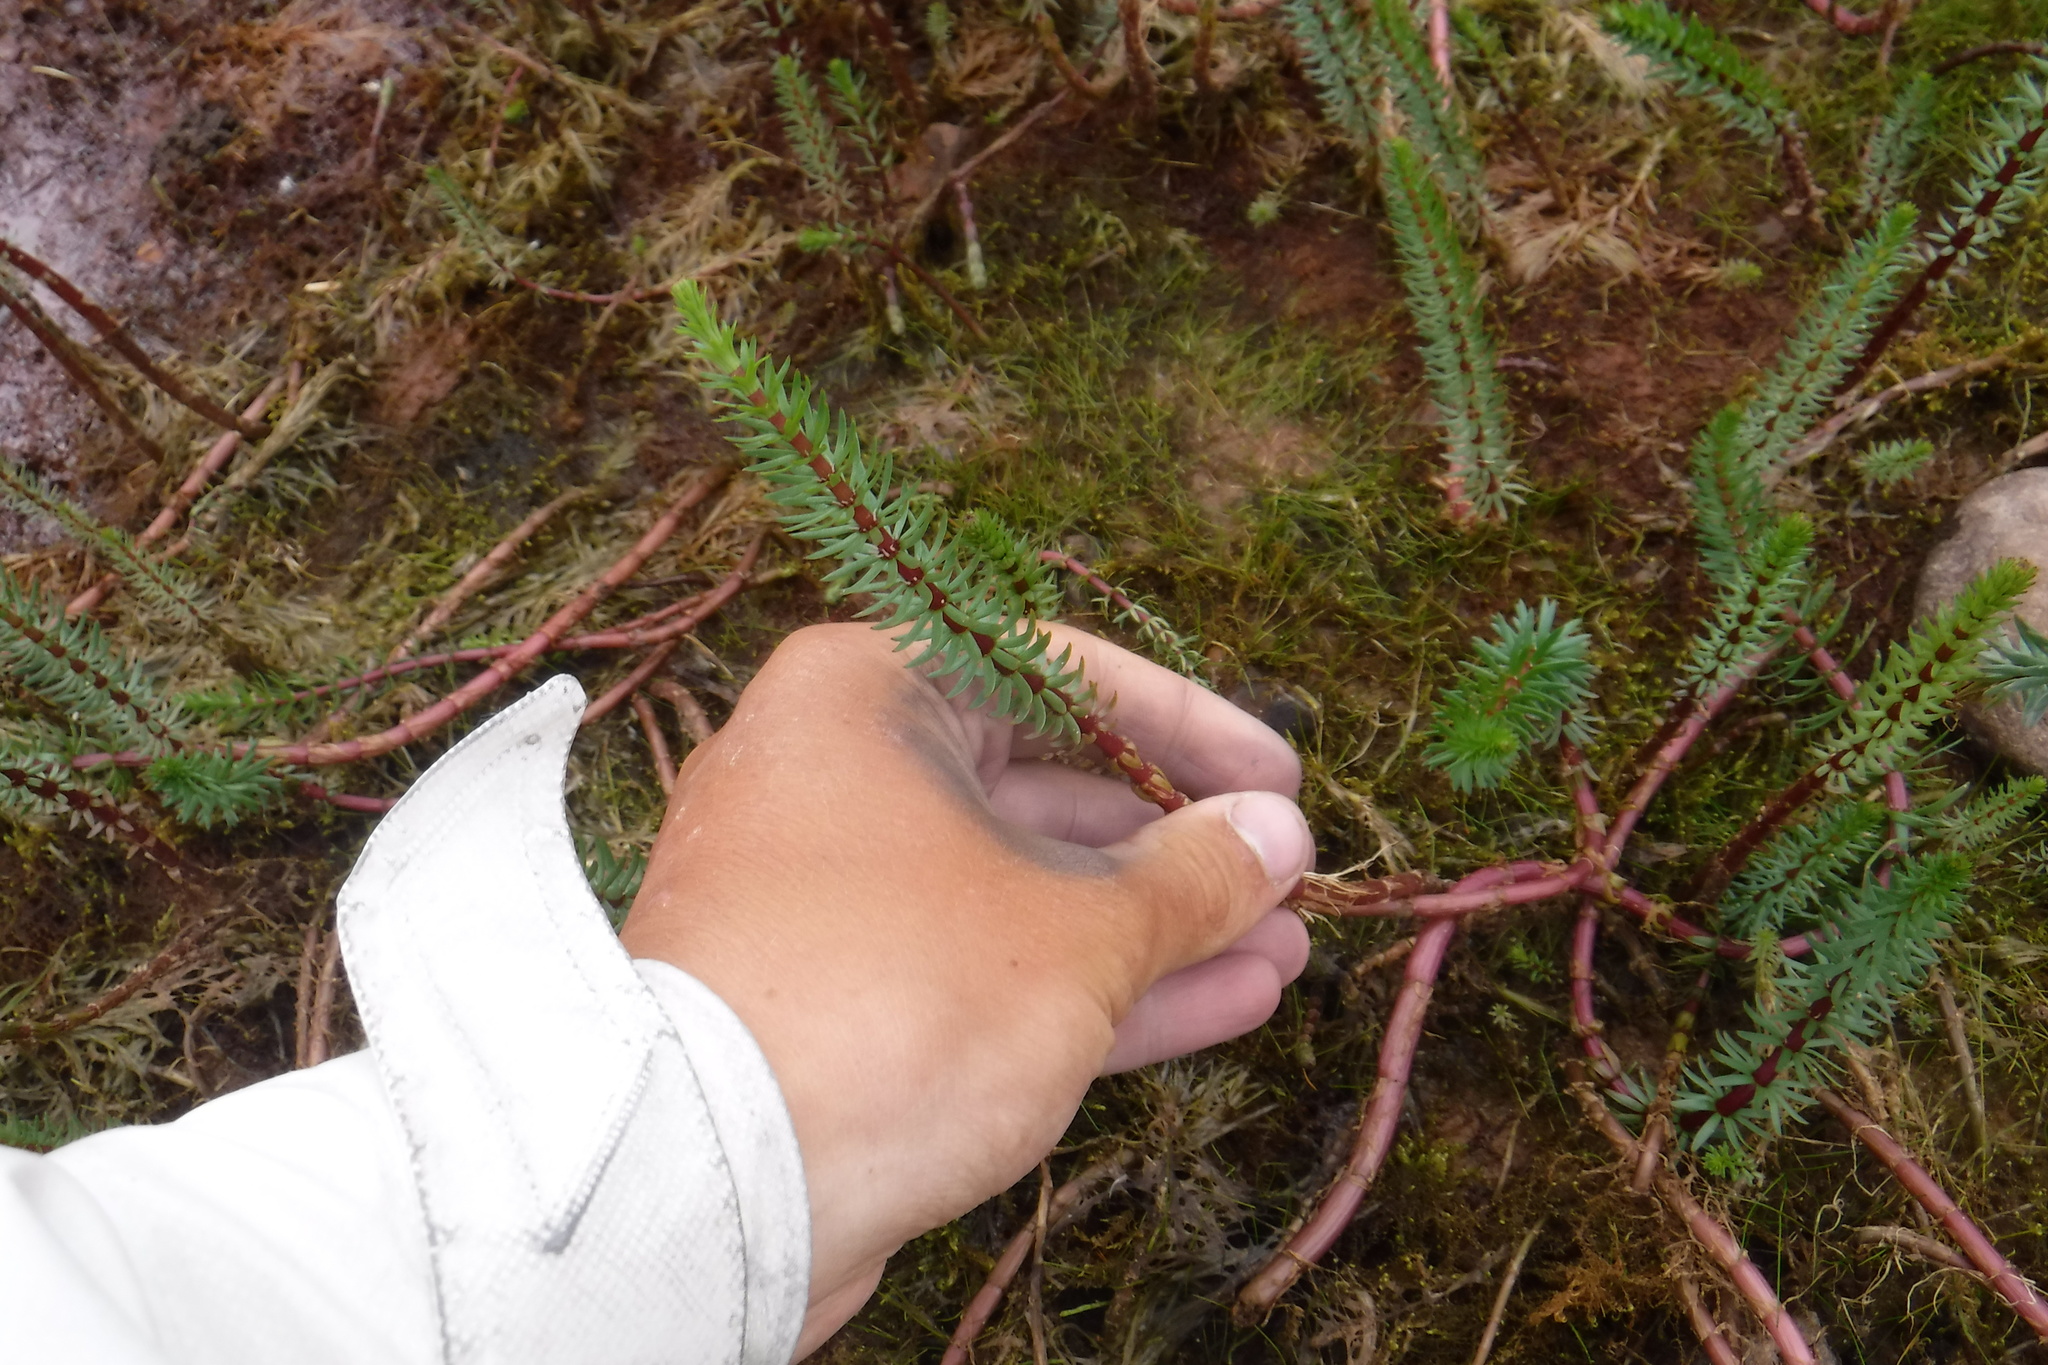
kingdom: Plantae
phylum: Tracheophyta
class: Magnoliopsida
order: Lamiales
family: Plantaginaceae
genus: Hippuris
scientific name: Hippuris vulgaris
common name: Mare's-tail
